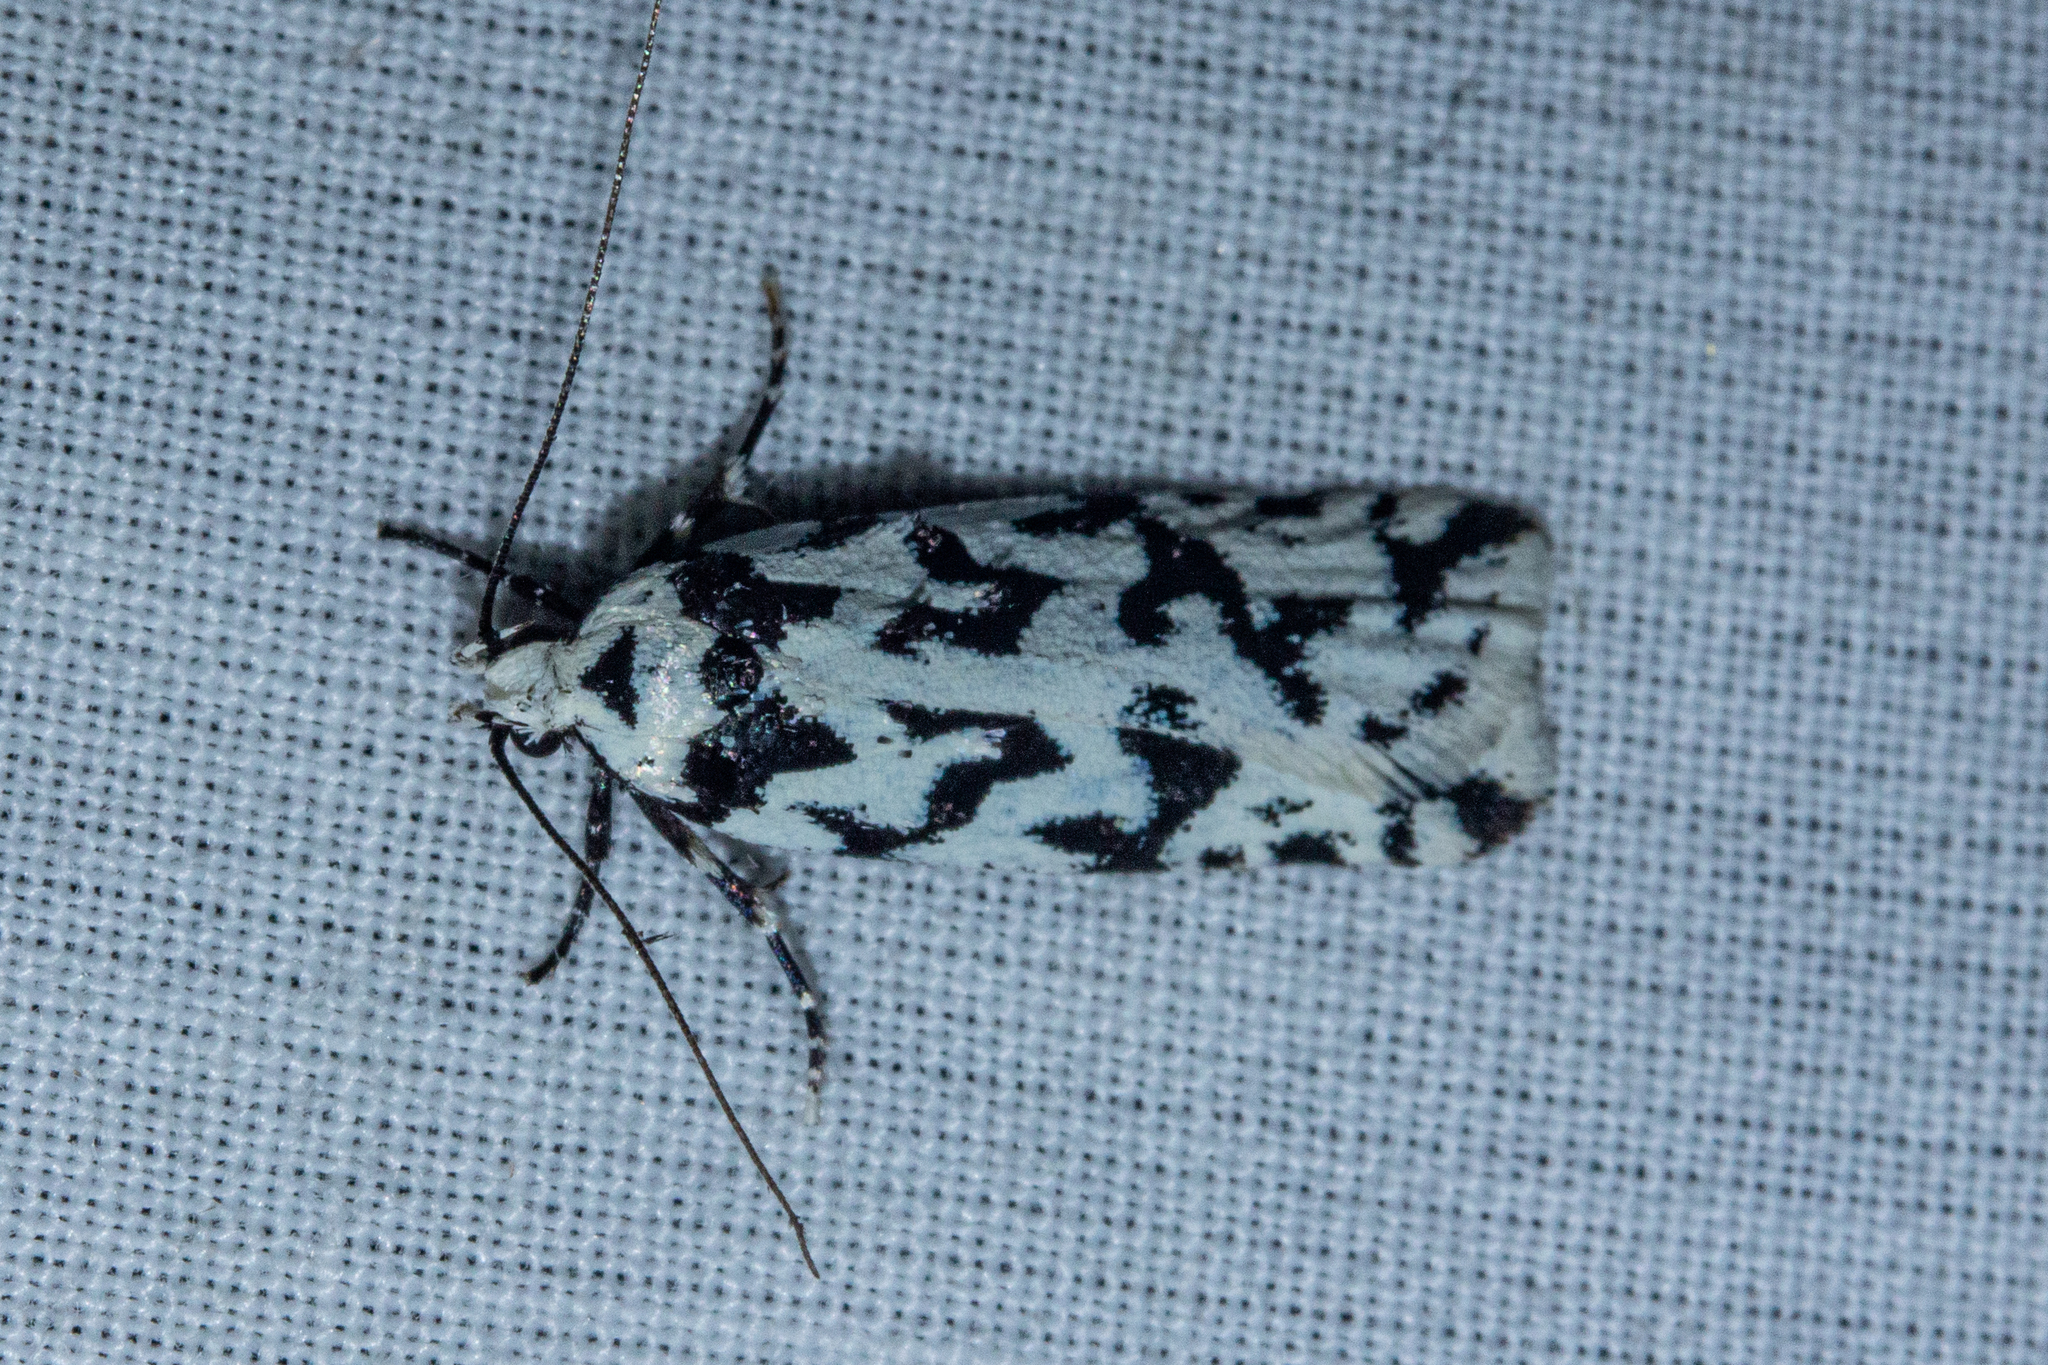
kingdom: Animalia
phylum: Arthropoda
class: Insecta
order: Lepidoptera
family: Oecophoridae
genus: Izatha
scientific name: Izatha acmonias
